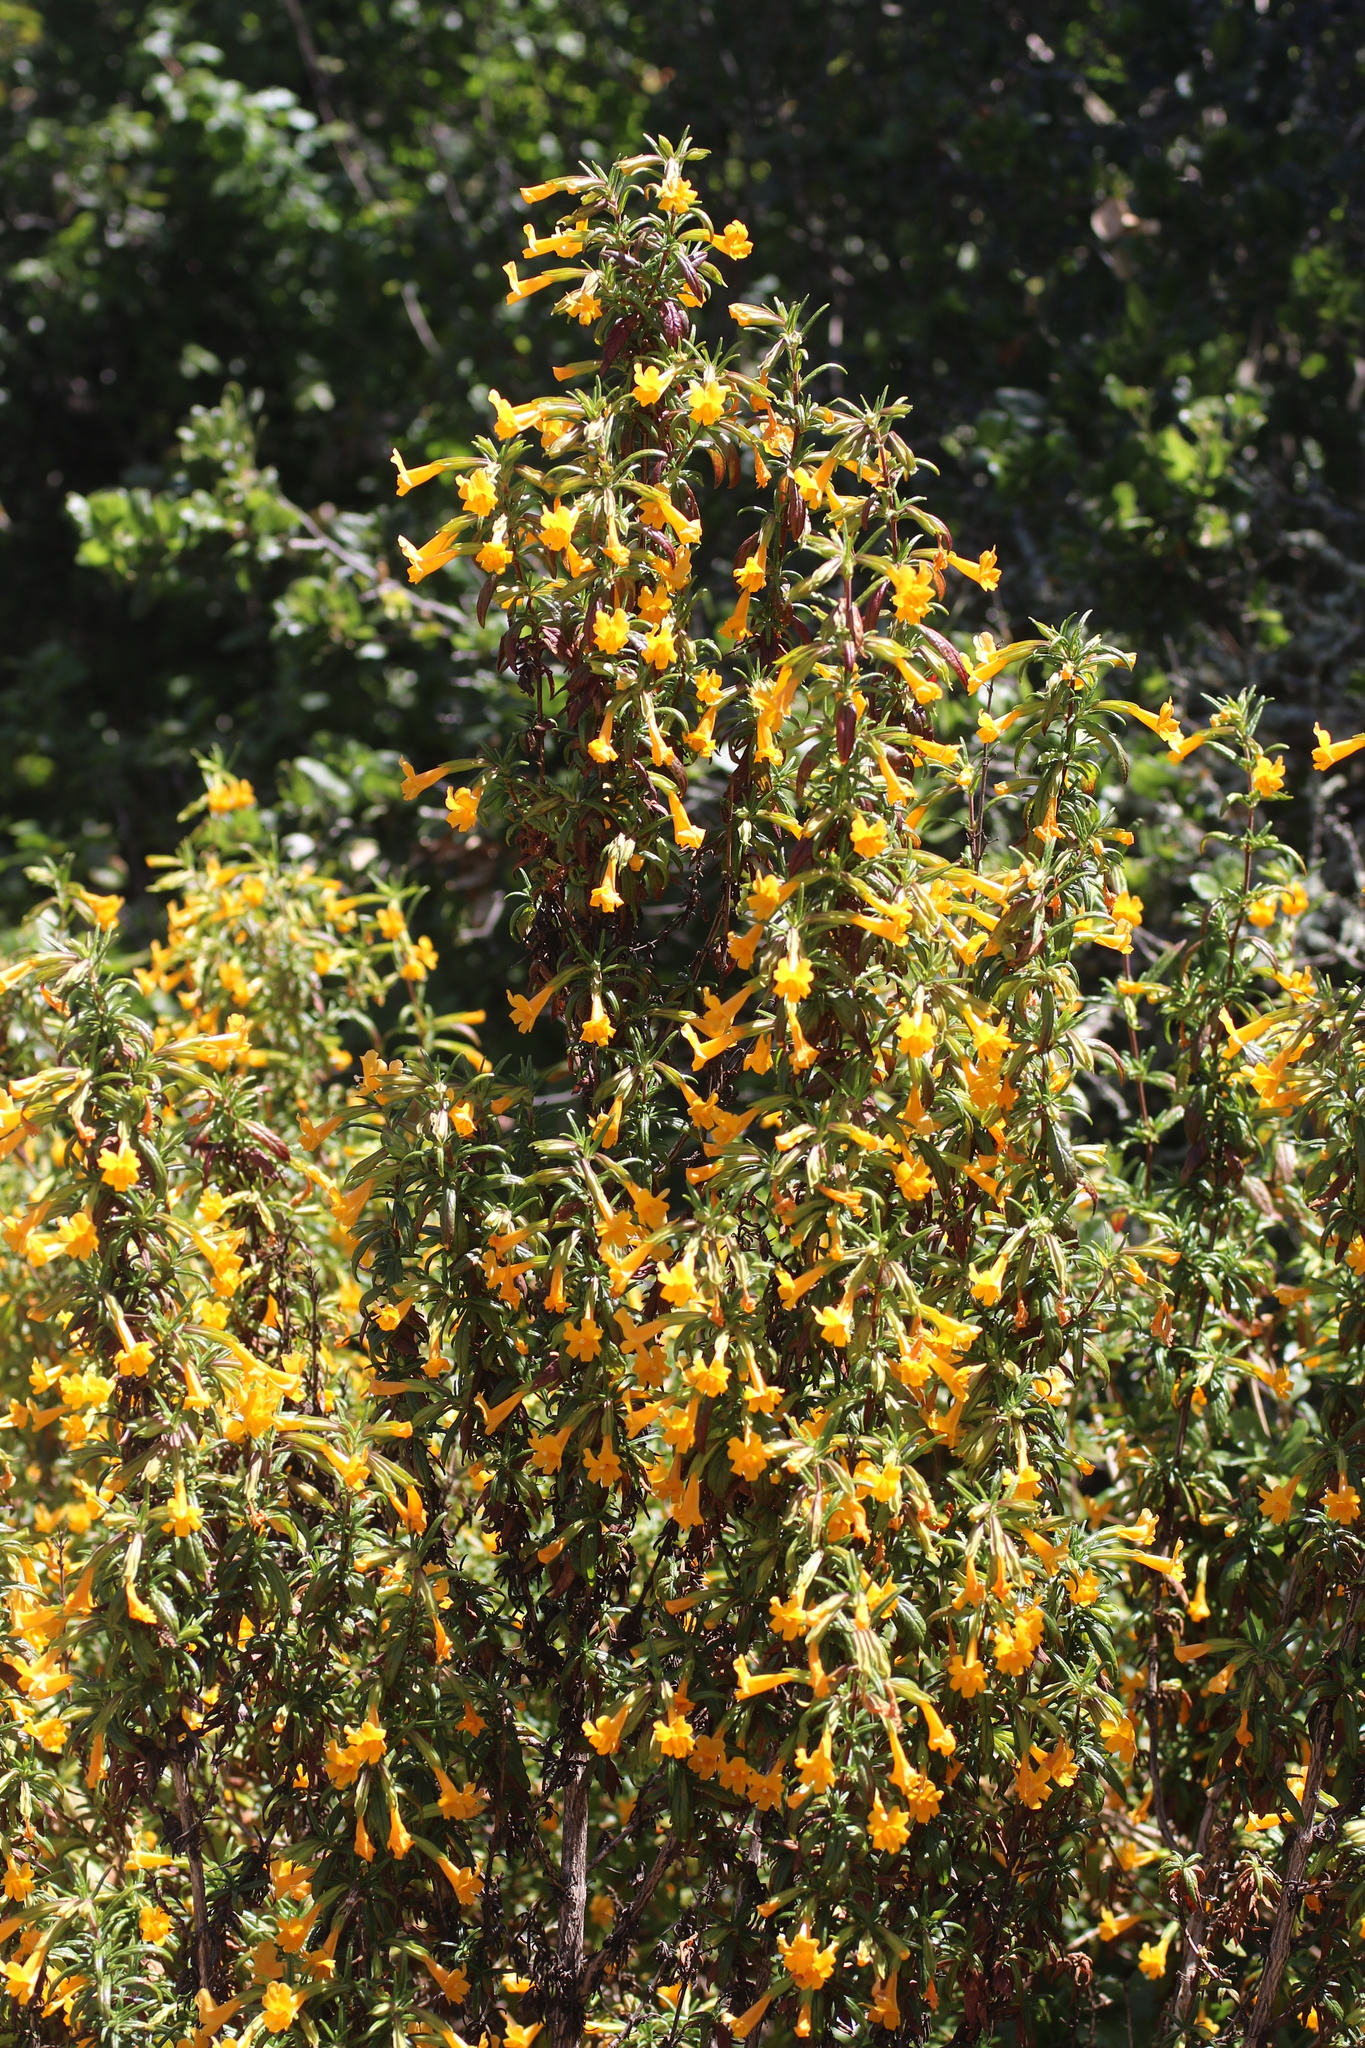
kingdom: Plantae
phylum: Tracheophyta
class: Magnoliopsida
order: Lamiales
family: Phrymaceae
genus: Diplacus
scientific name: Diplacus aurantiacus
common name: Bush monkey-flower
